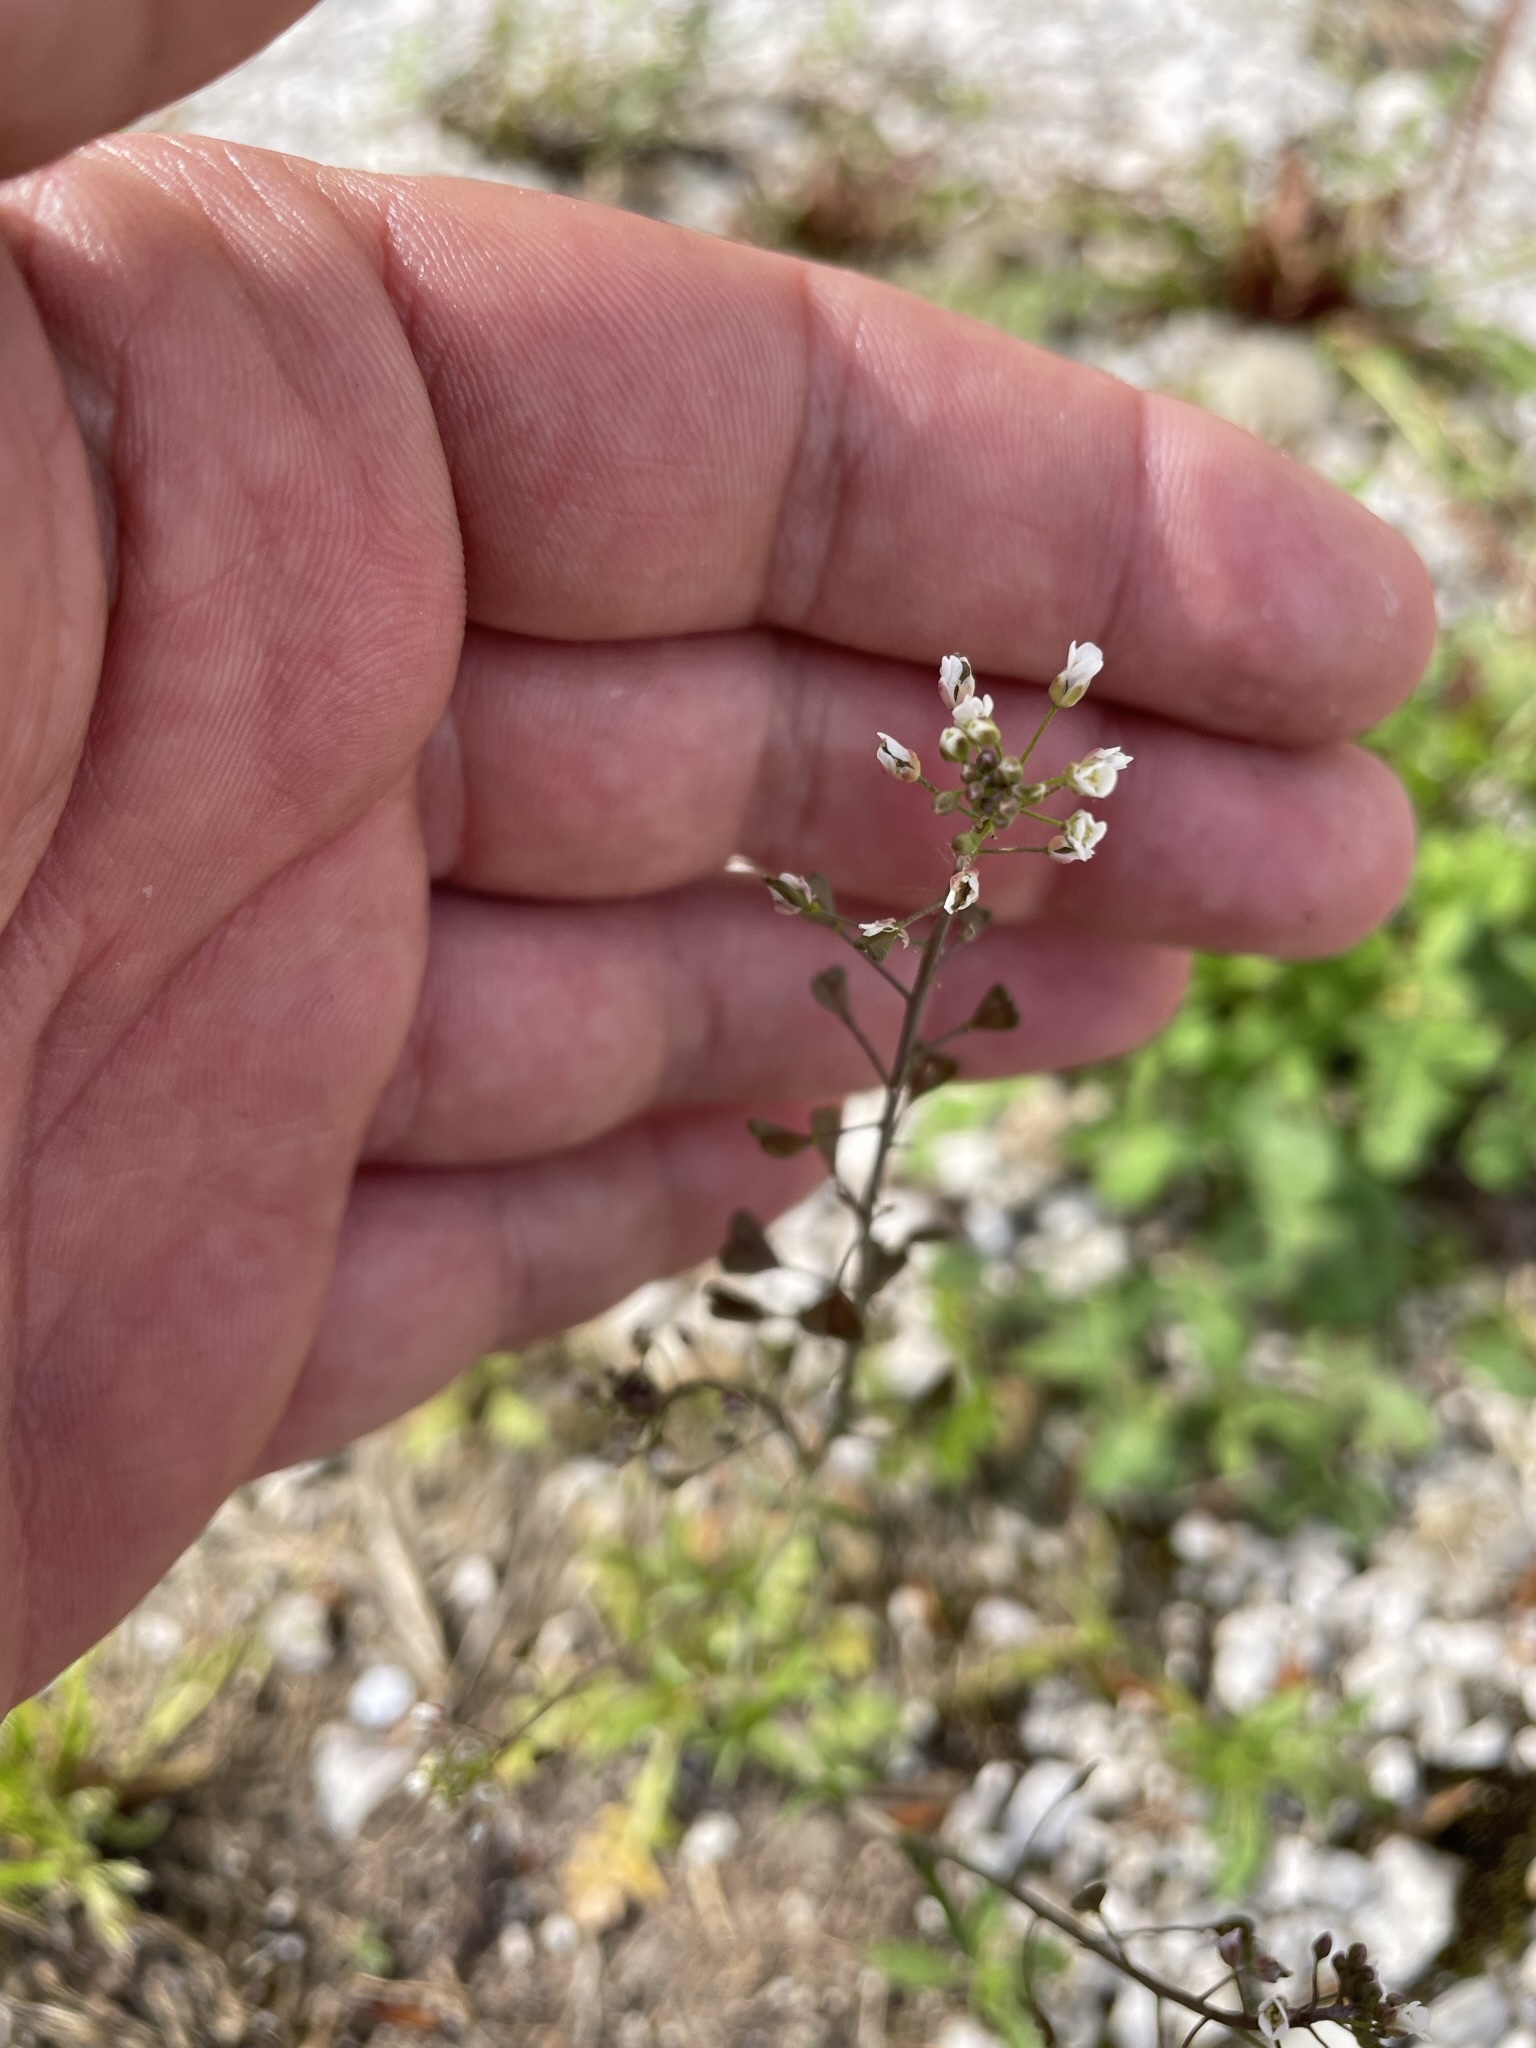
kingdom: Plantae
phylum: Tracheophyta
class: Magnoliopsida
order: Brassicales
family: Brassicaceae
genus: Capsella
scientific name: Capsella bursa-pastoris
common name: Shepherd's purse
